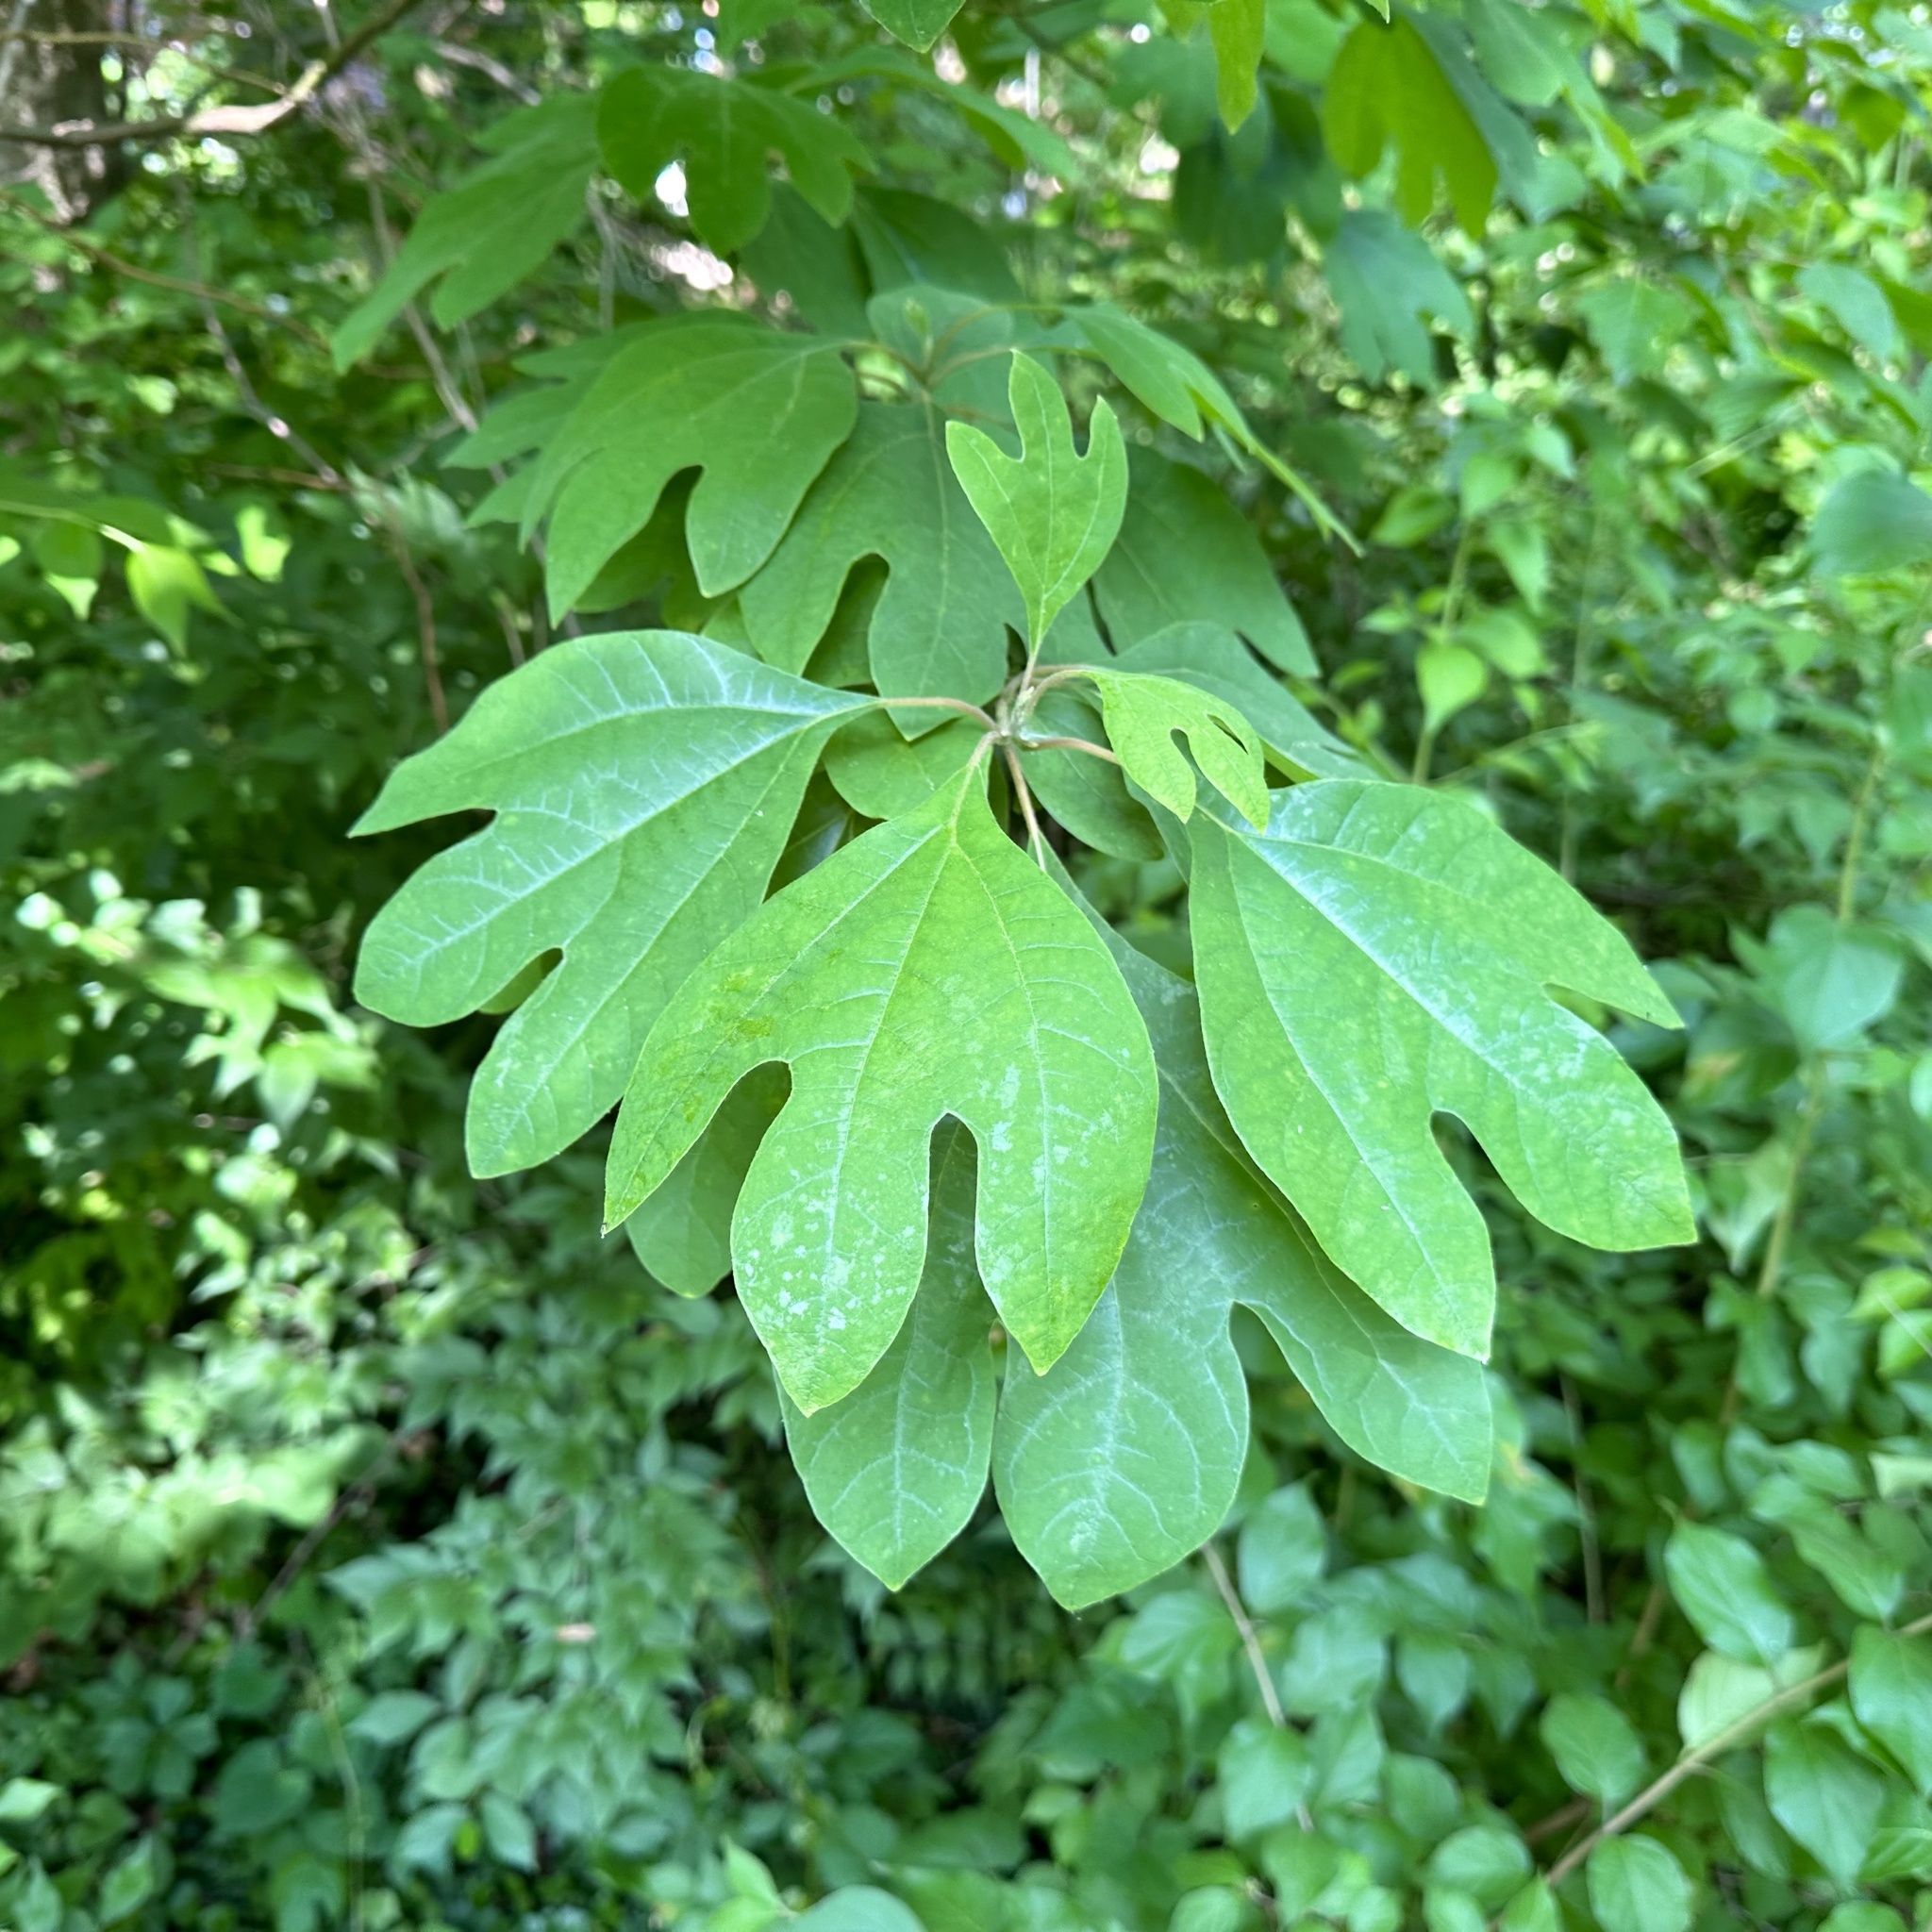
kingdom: Plantae
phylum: Tracheophyta
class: Magnoliopsida
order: Laurales
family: Lauraceae
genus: Sassafras
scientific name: Sassafras albidum
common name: Sassafras
